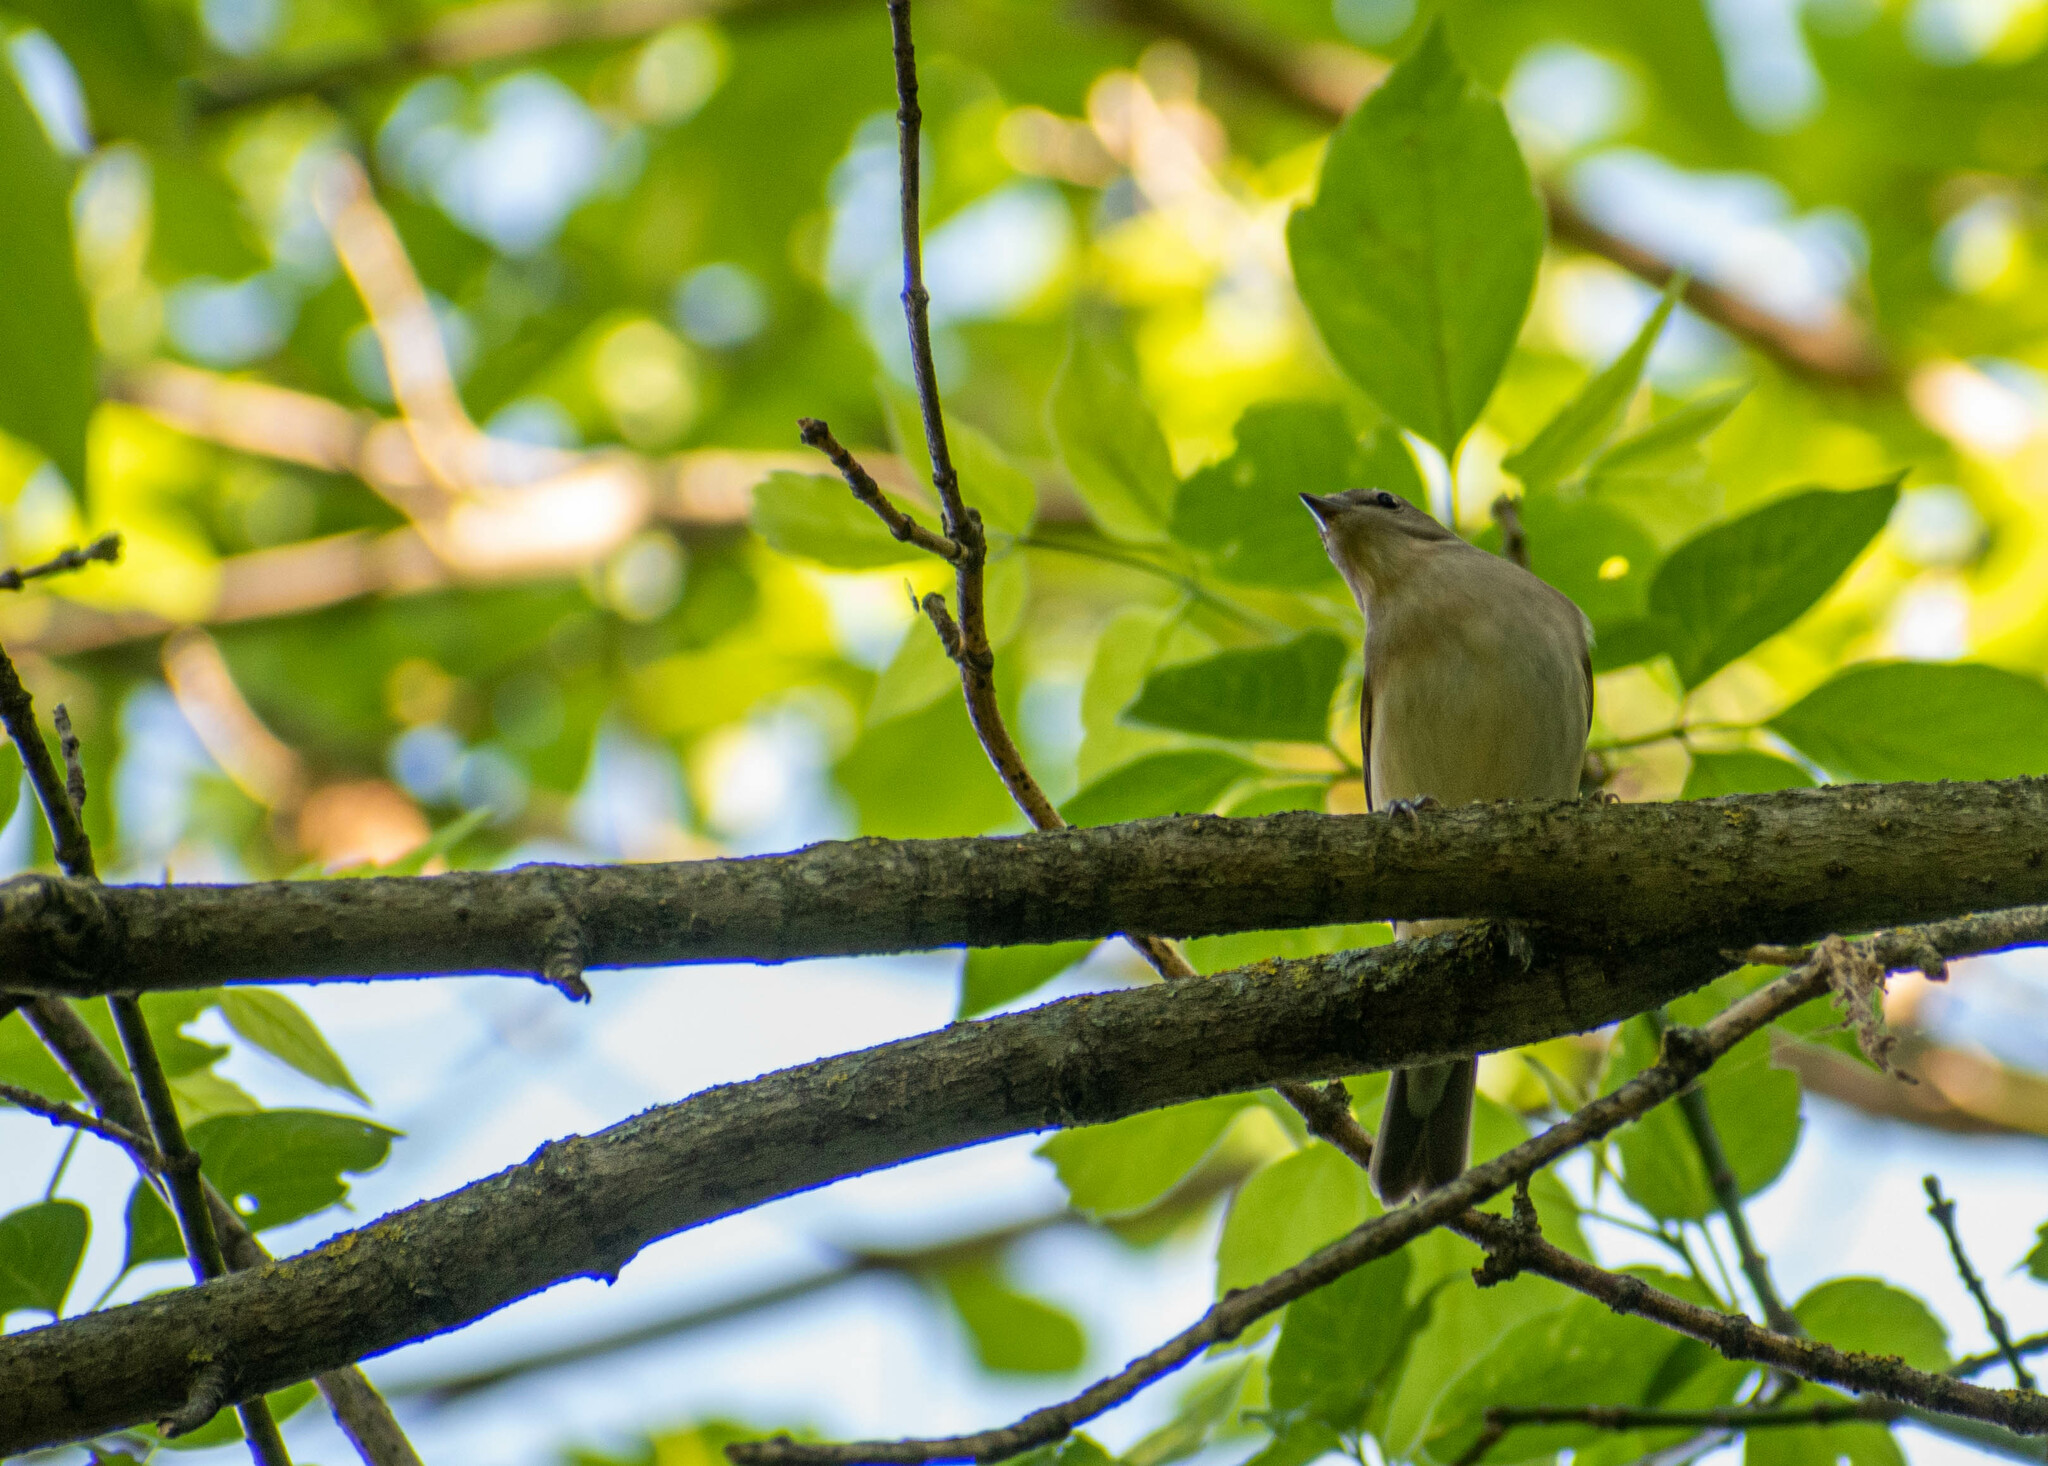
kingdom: Animalia
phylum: Chordata
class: Aves
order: Passeriformes
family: Sylviidae
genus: Sylvia
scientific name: Sylvia borin
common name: Garden warbler
